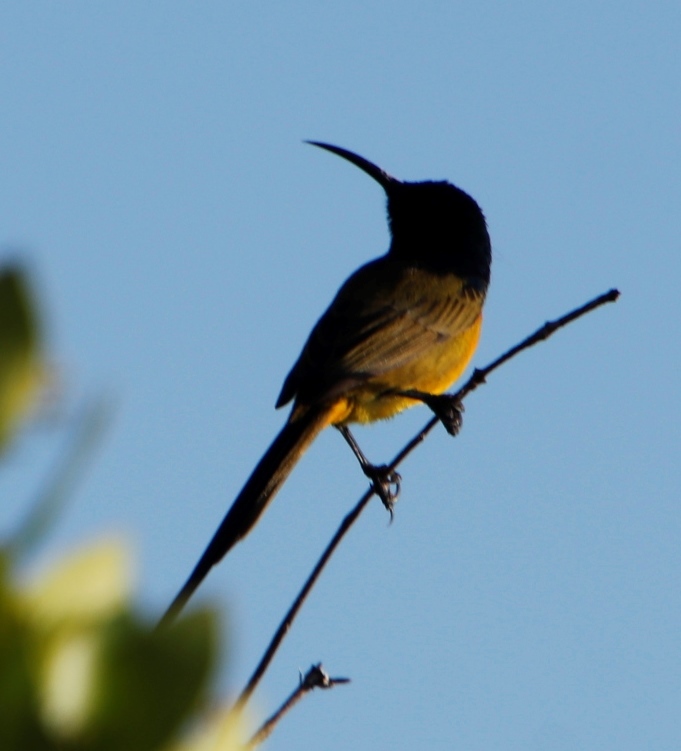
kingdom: Animalia
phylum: Chordata
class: Aves
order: Passeriformes
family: Nectariniidae
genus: Anthobaphes
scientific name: Anthobaphes violacea
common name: Orange-breasted sunbird
